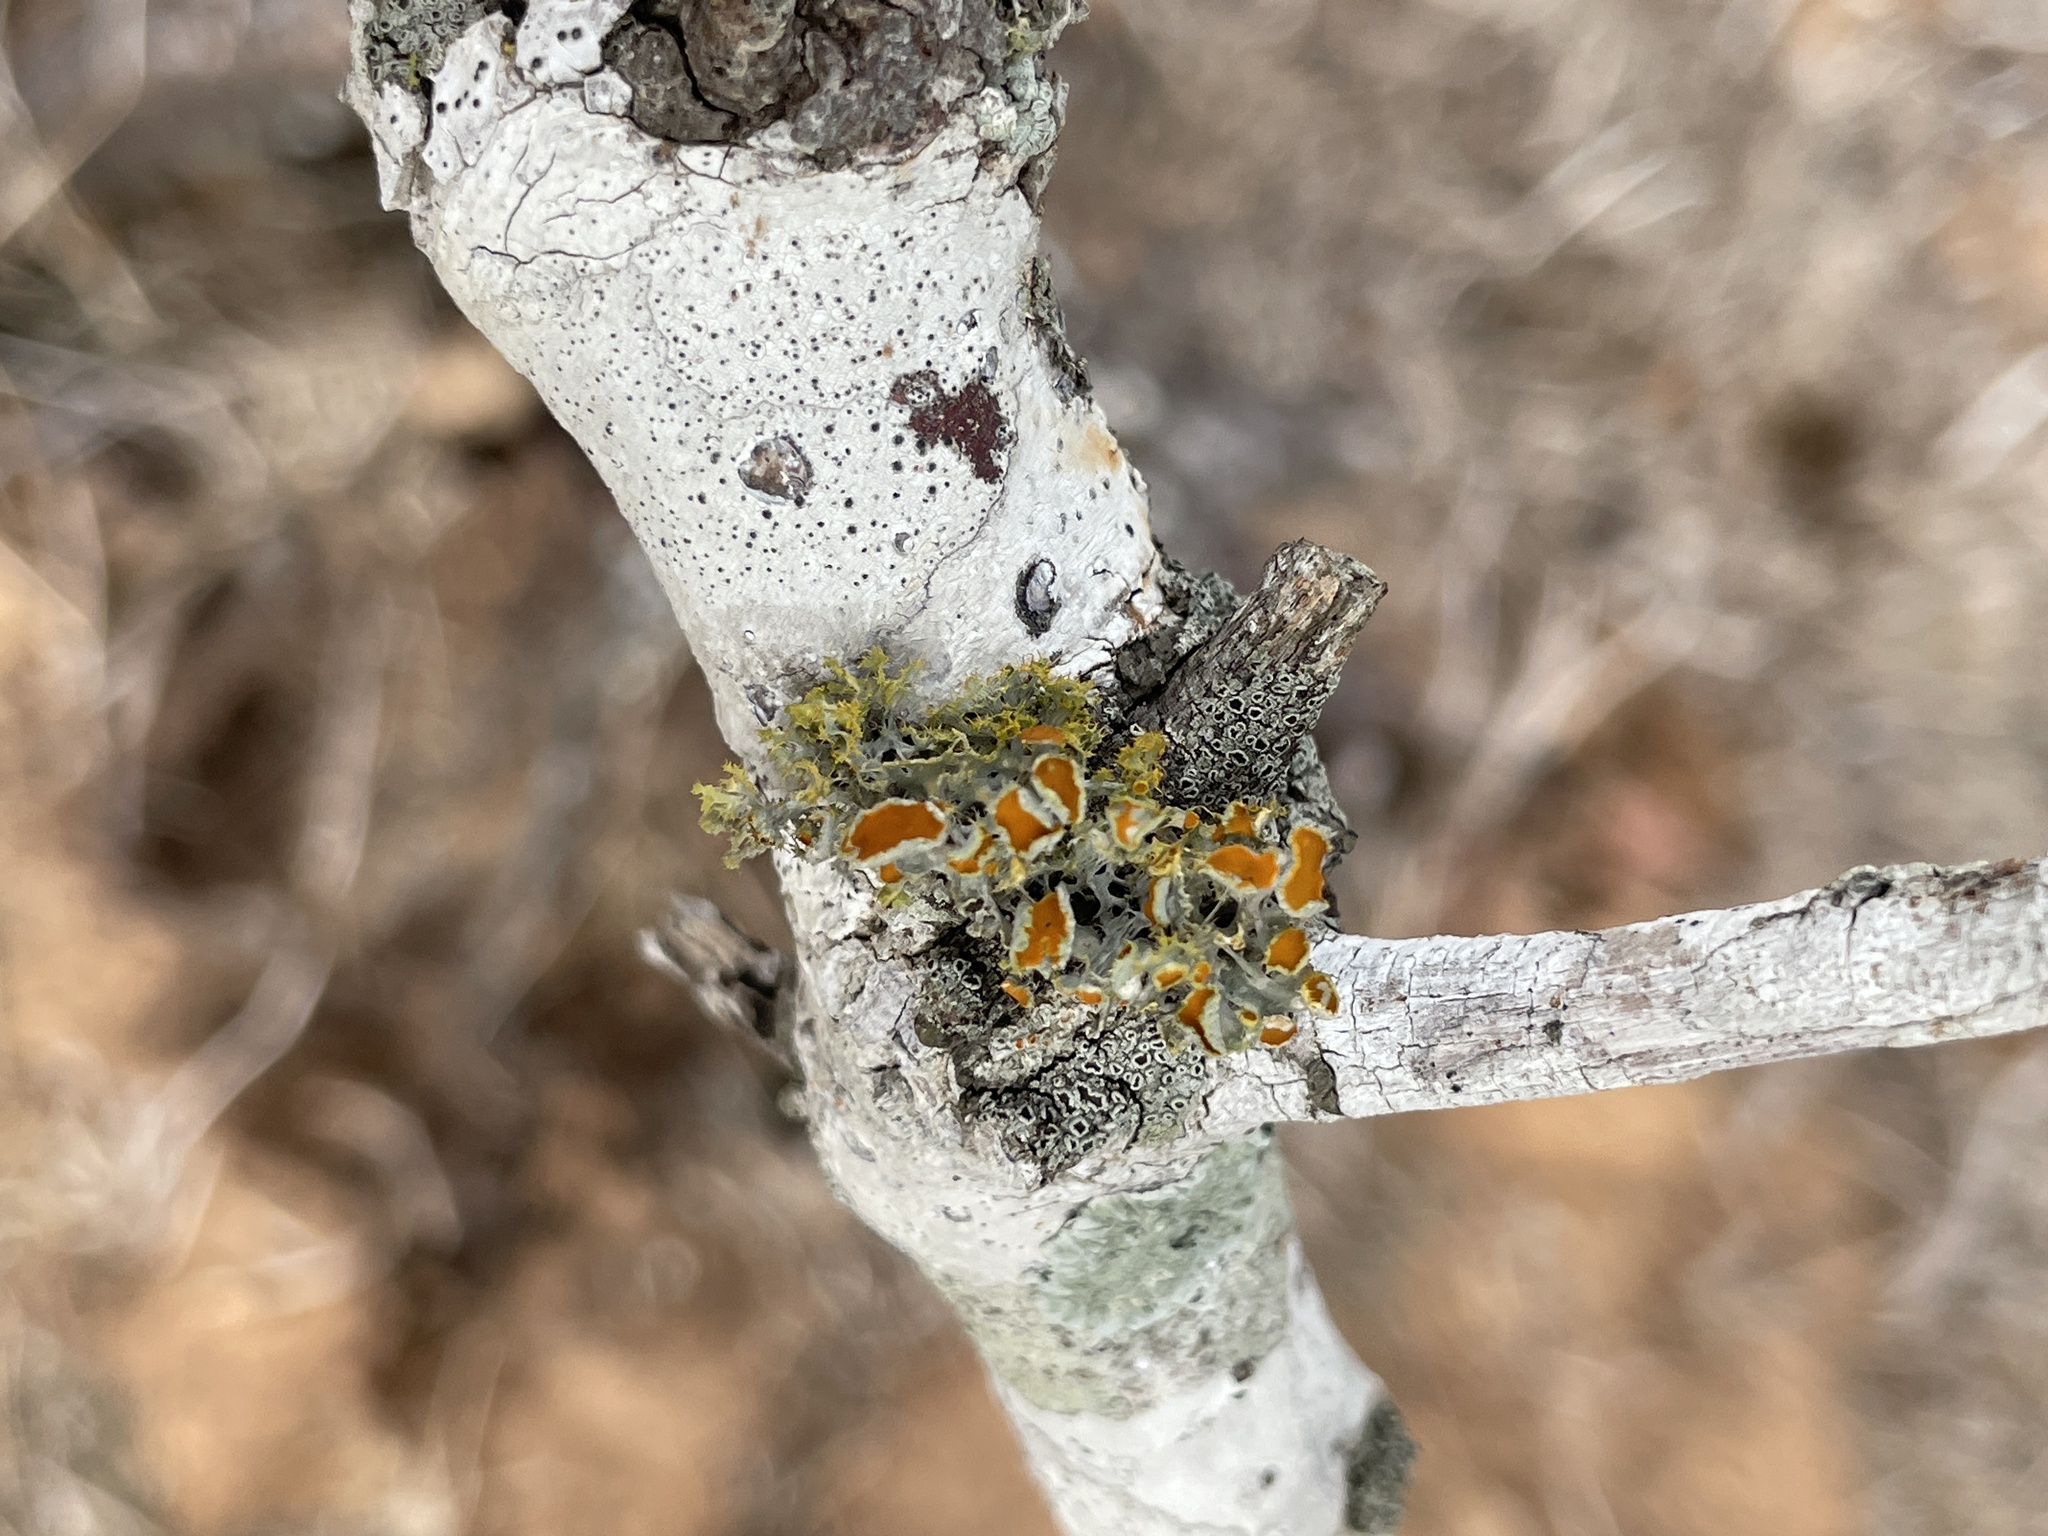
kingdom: Fungi
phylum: Ascomycota
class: Lecanoromycetes
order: Teloschistales
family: Teloschistaceae
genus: Niorma
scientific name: Niorma chrysophthalma
